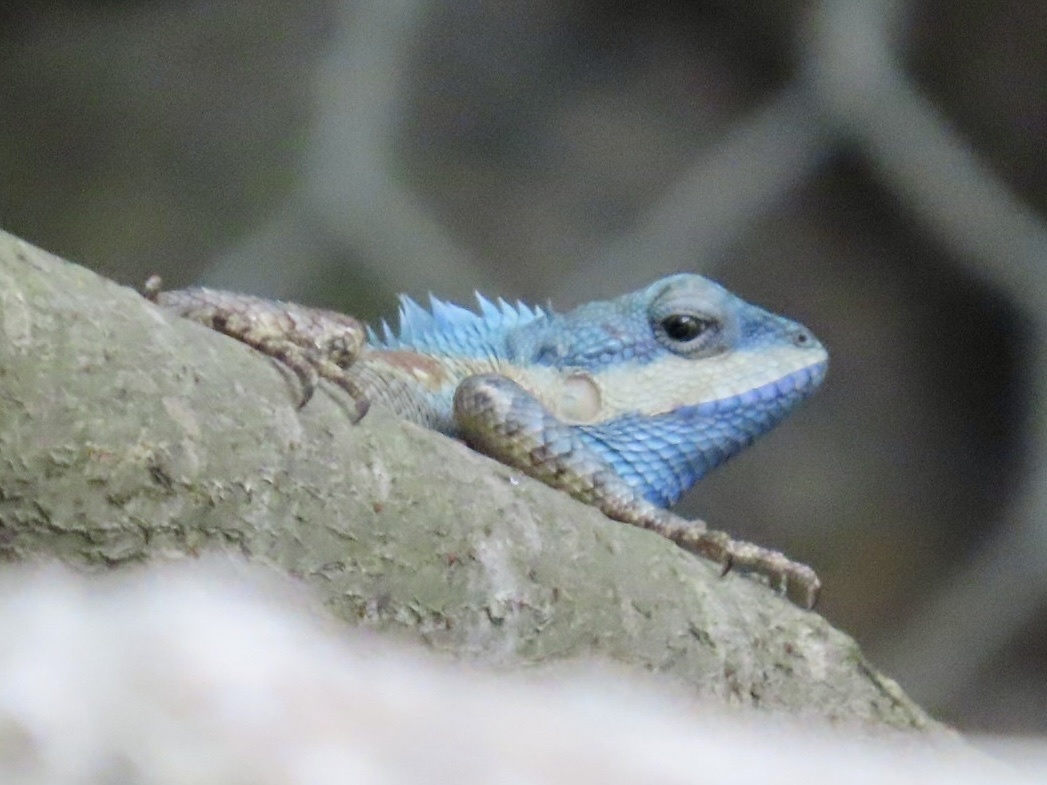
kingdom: Animalia
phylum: Chordata
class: Squamata
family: Agamidae
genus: Calotes
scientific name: Calotes geissleri
